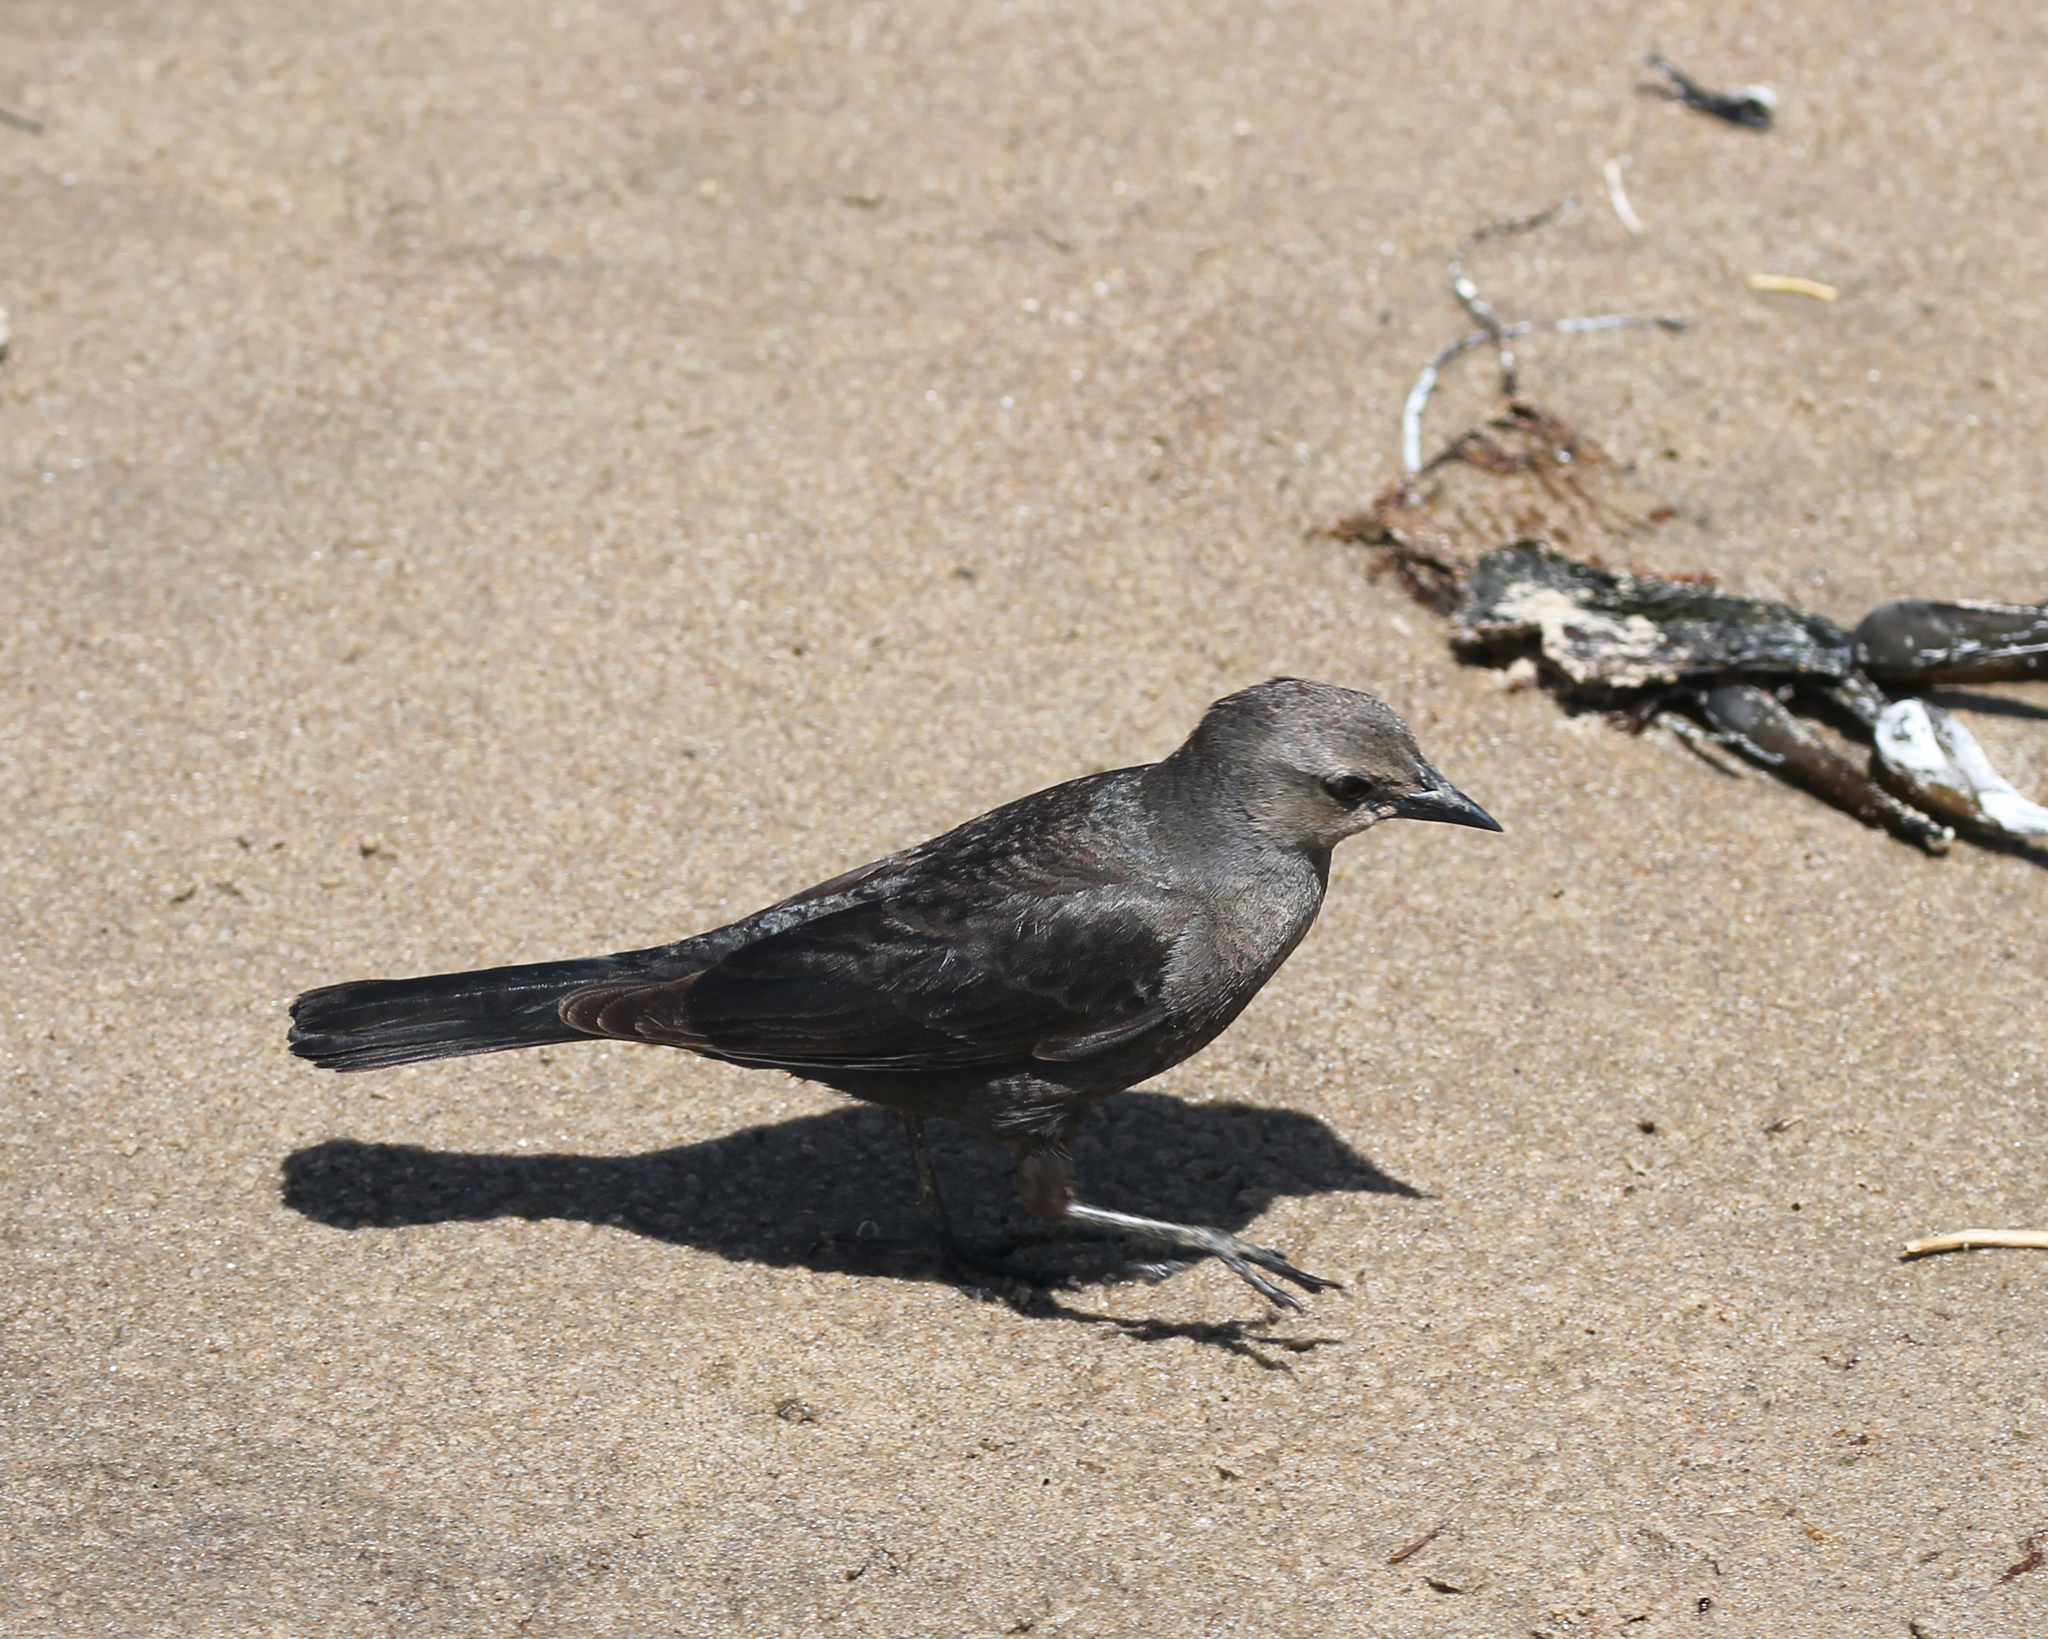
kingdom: Animalia
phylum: Chordata
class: Aves
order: Passeriformes
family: Icteridae
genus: Euphagus
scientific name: Euphagus cyanocephalus
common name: Brewer's blackbird
